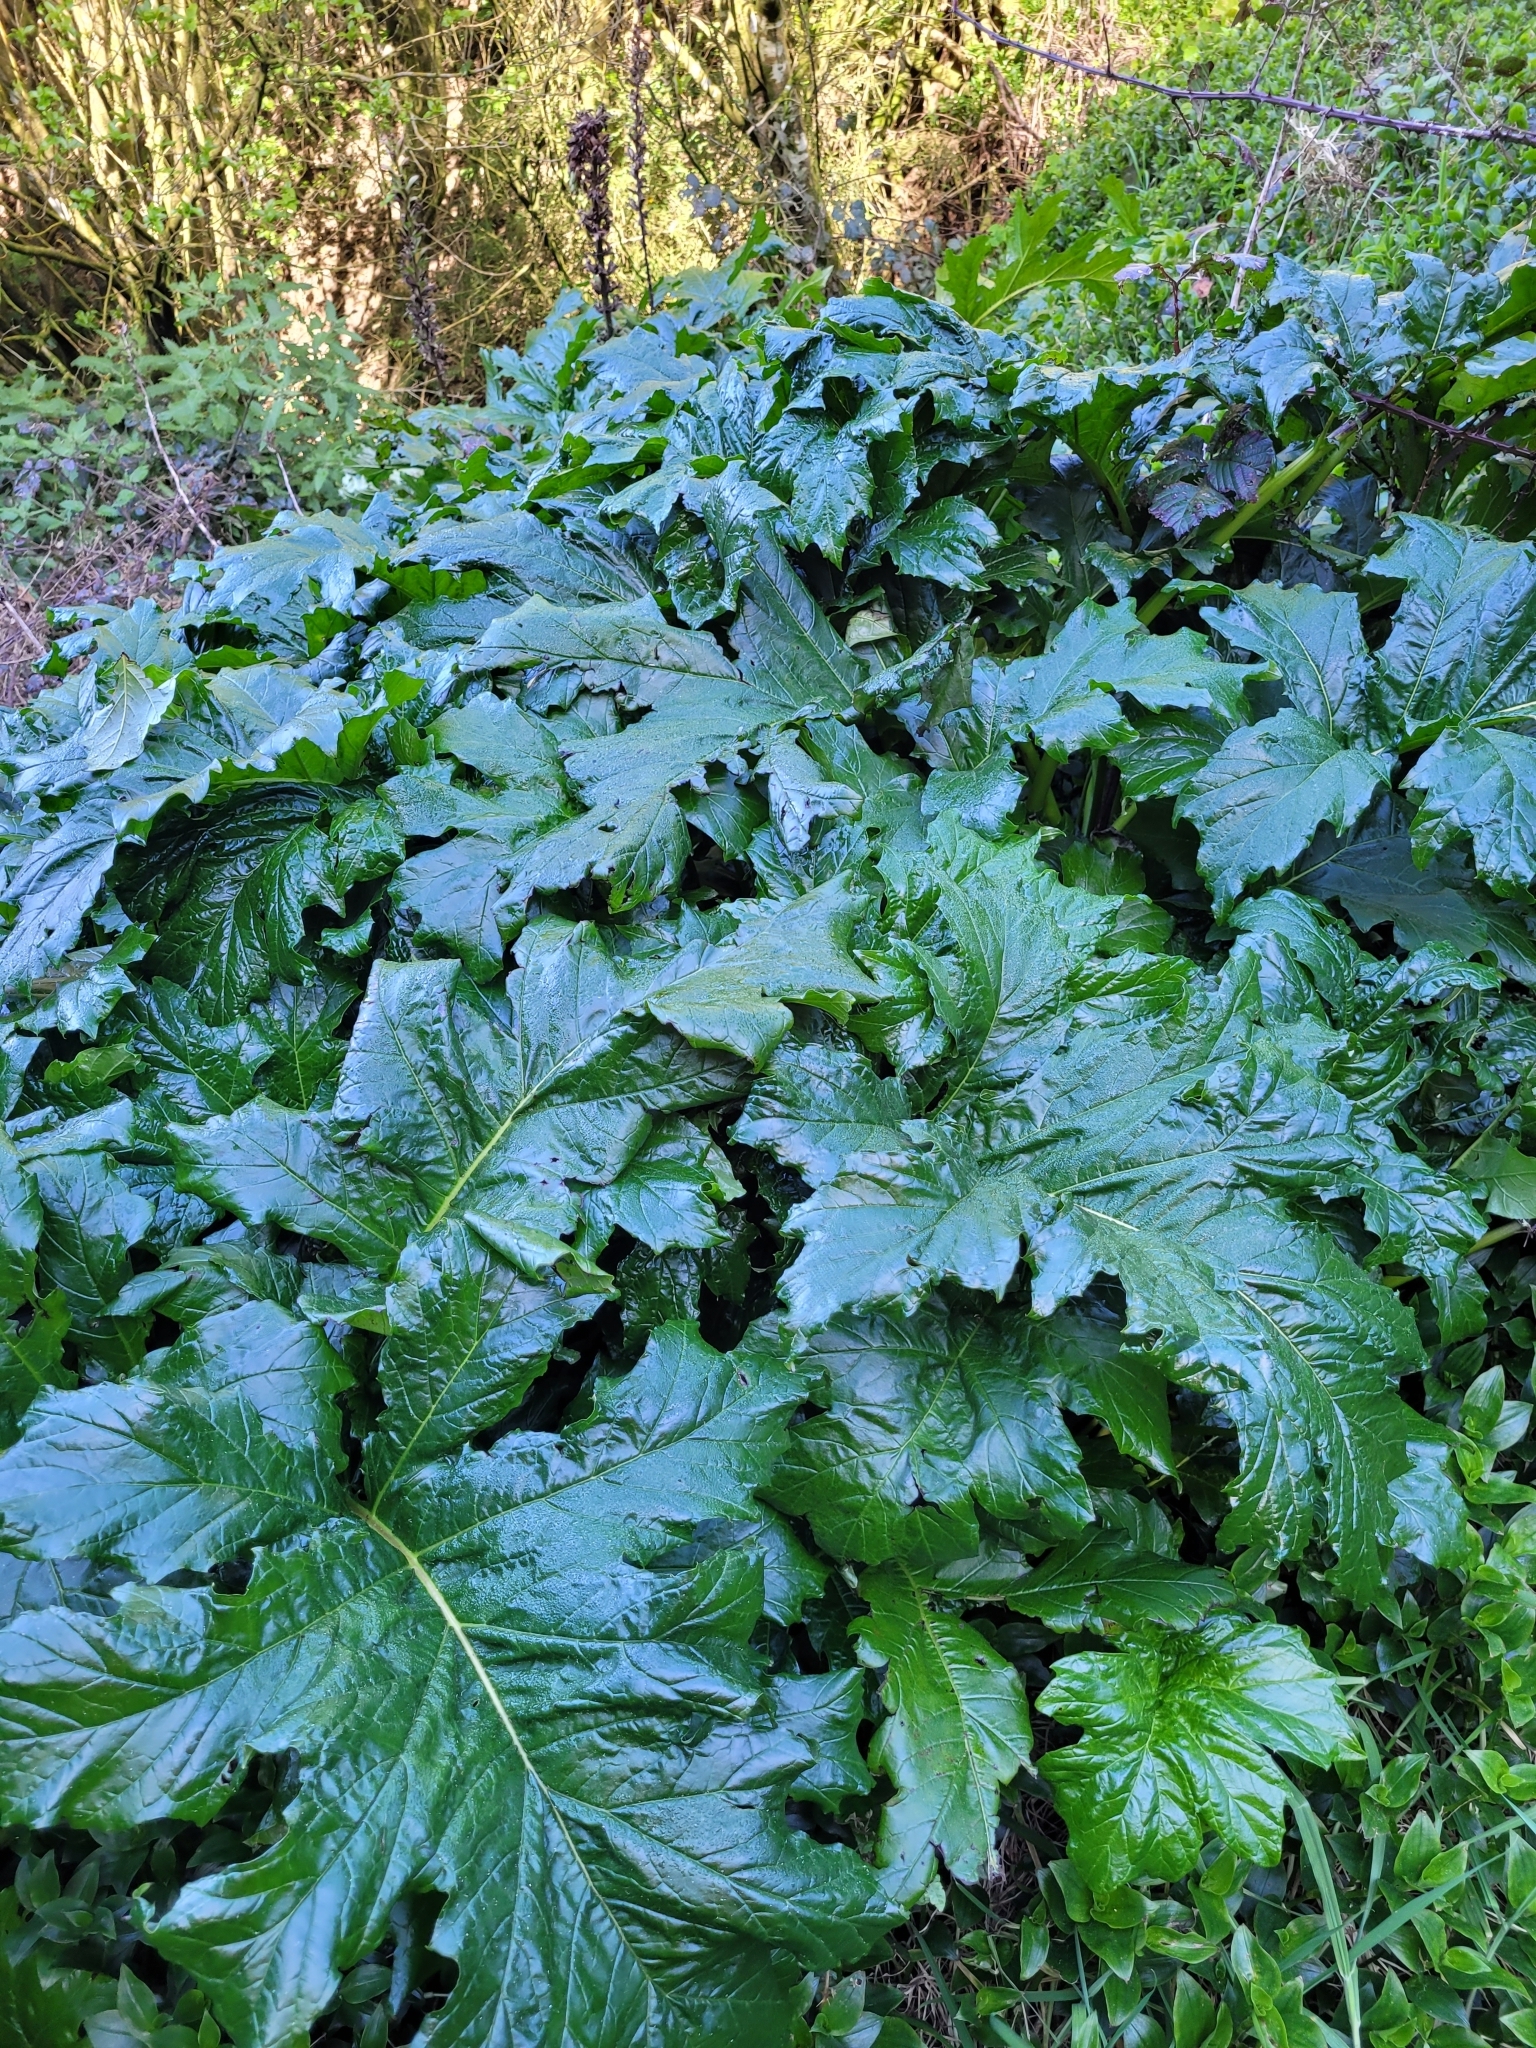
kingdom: Plantae
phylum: Tracheophyta
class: Magnoliopsida
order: Lamiales
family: Acanthaceae
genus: Acanthus
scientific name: Acanthus mollis
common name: Bear's-breech
